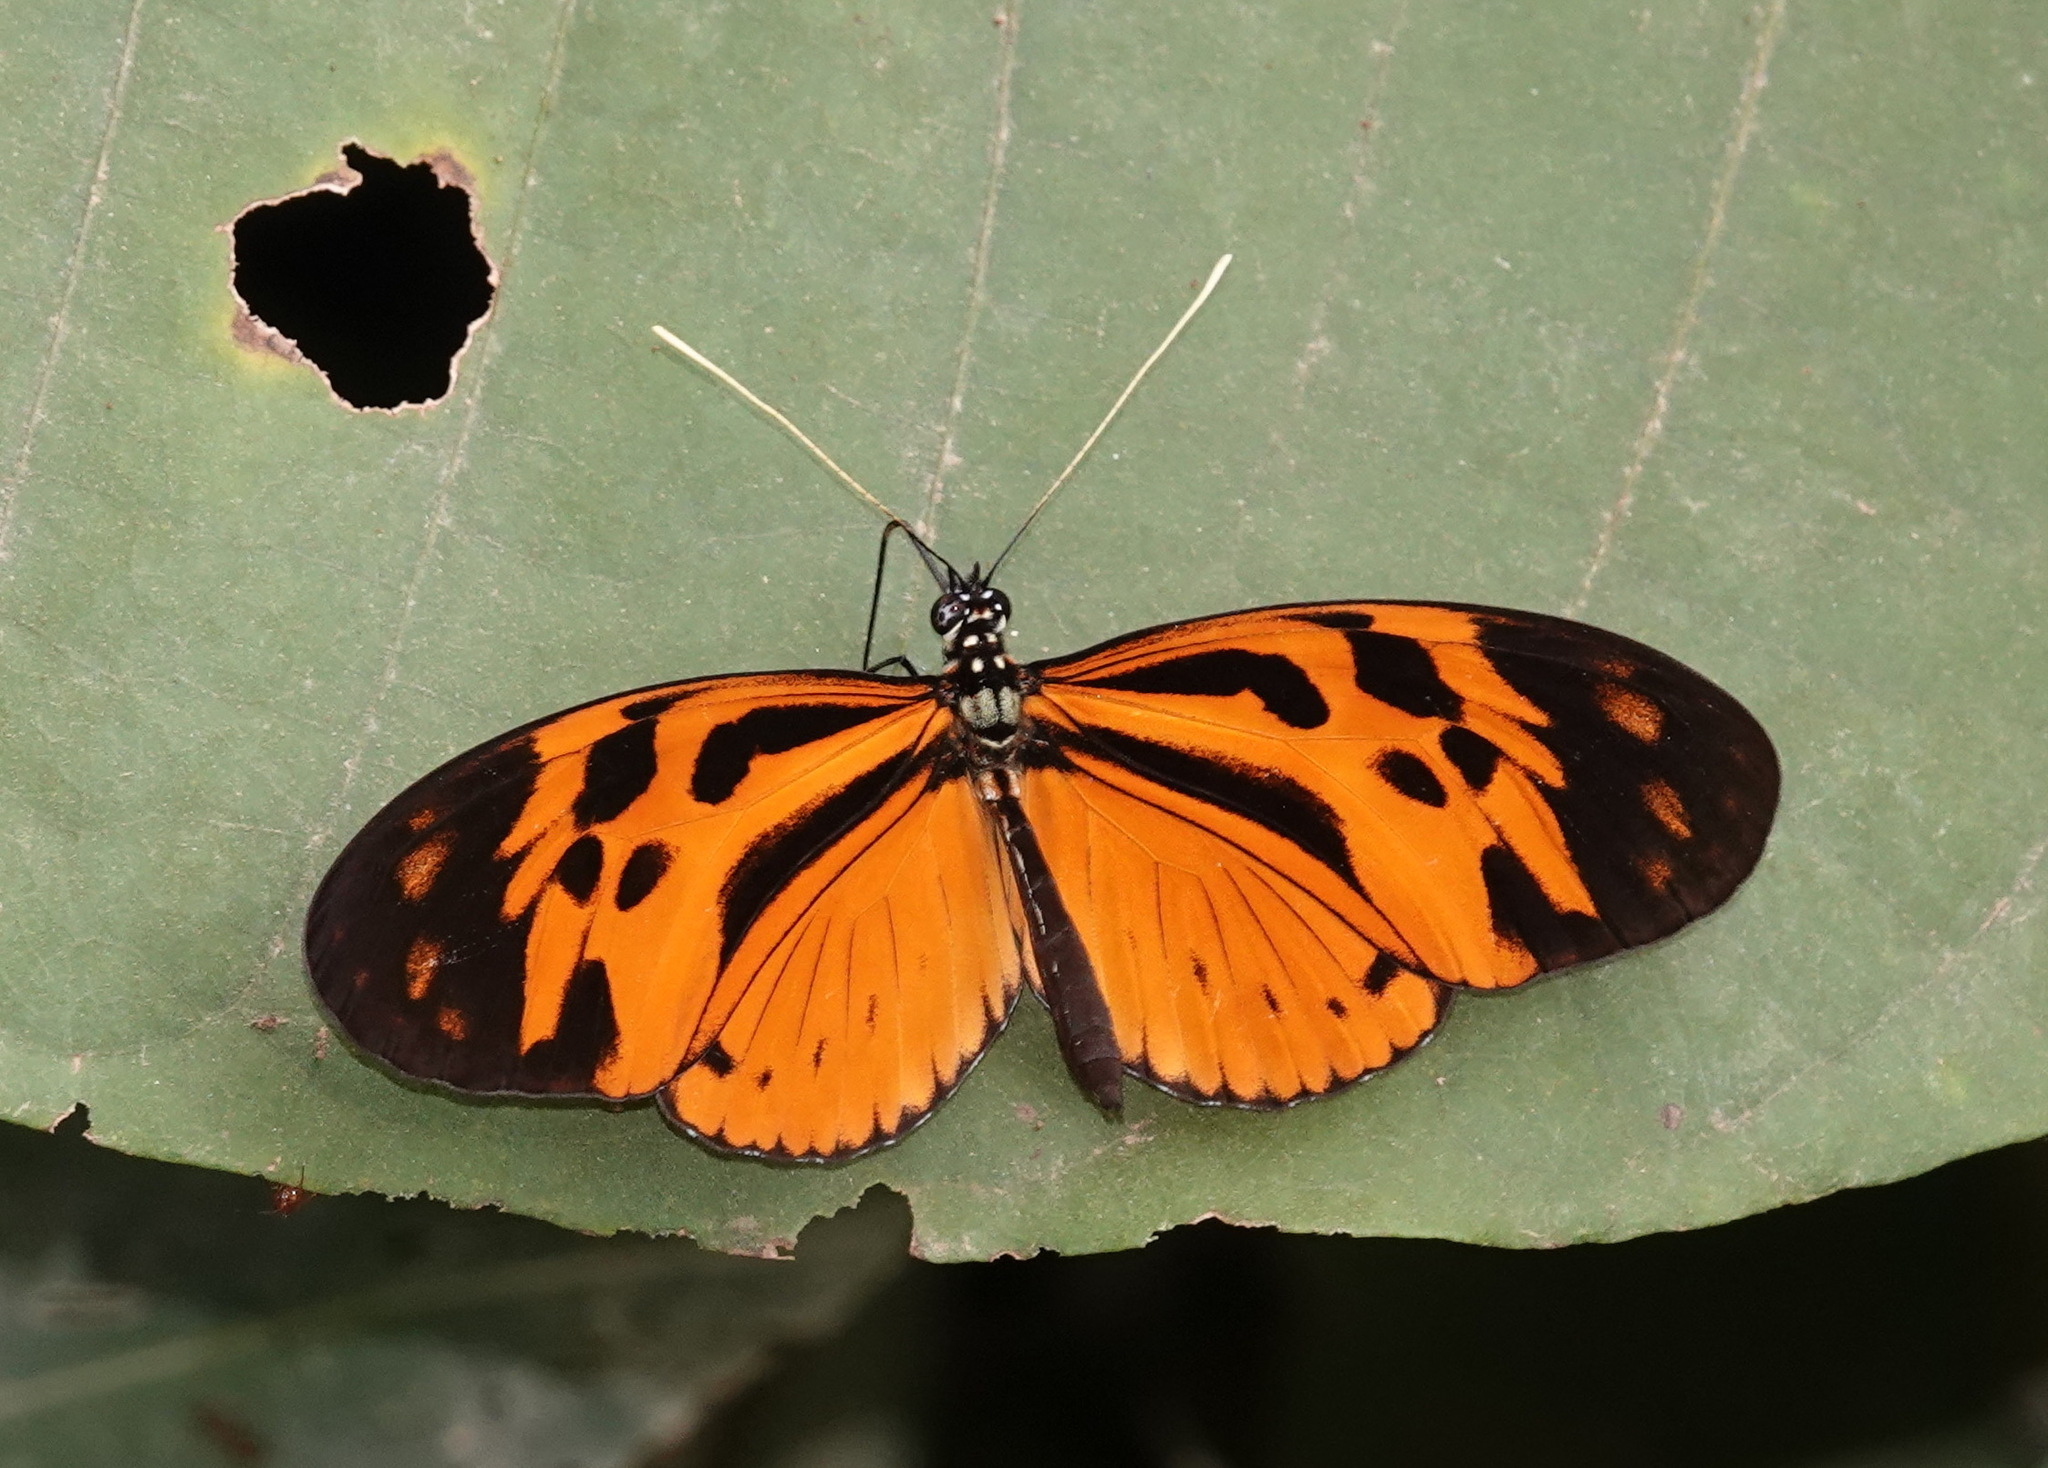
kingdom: Animalia
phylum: Arthropoda
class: Insecta
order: Lepidoptera
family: Nymphalidae
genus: Heliconius
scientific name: Heliconius numatus
